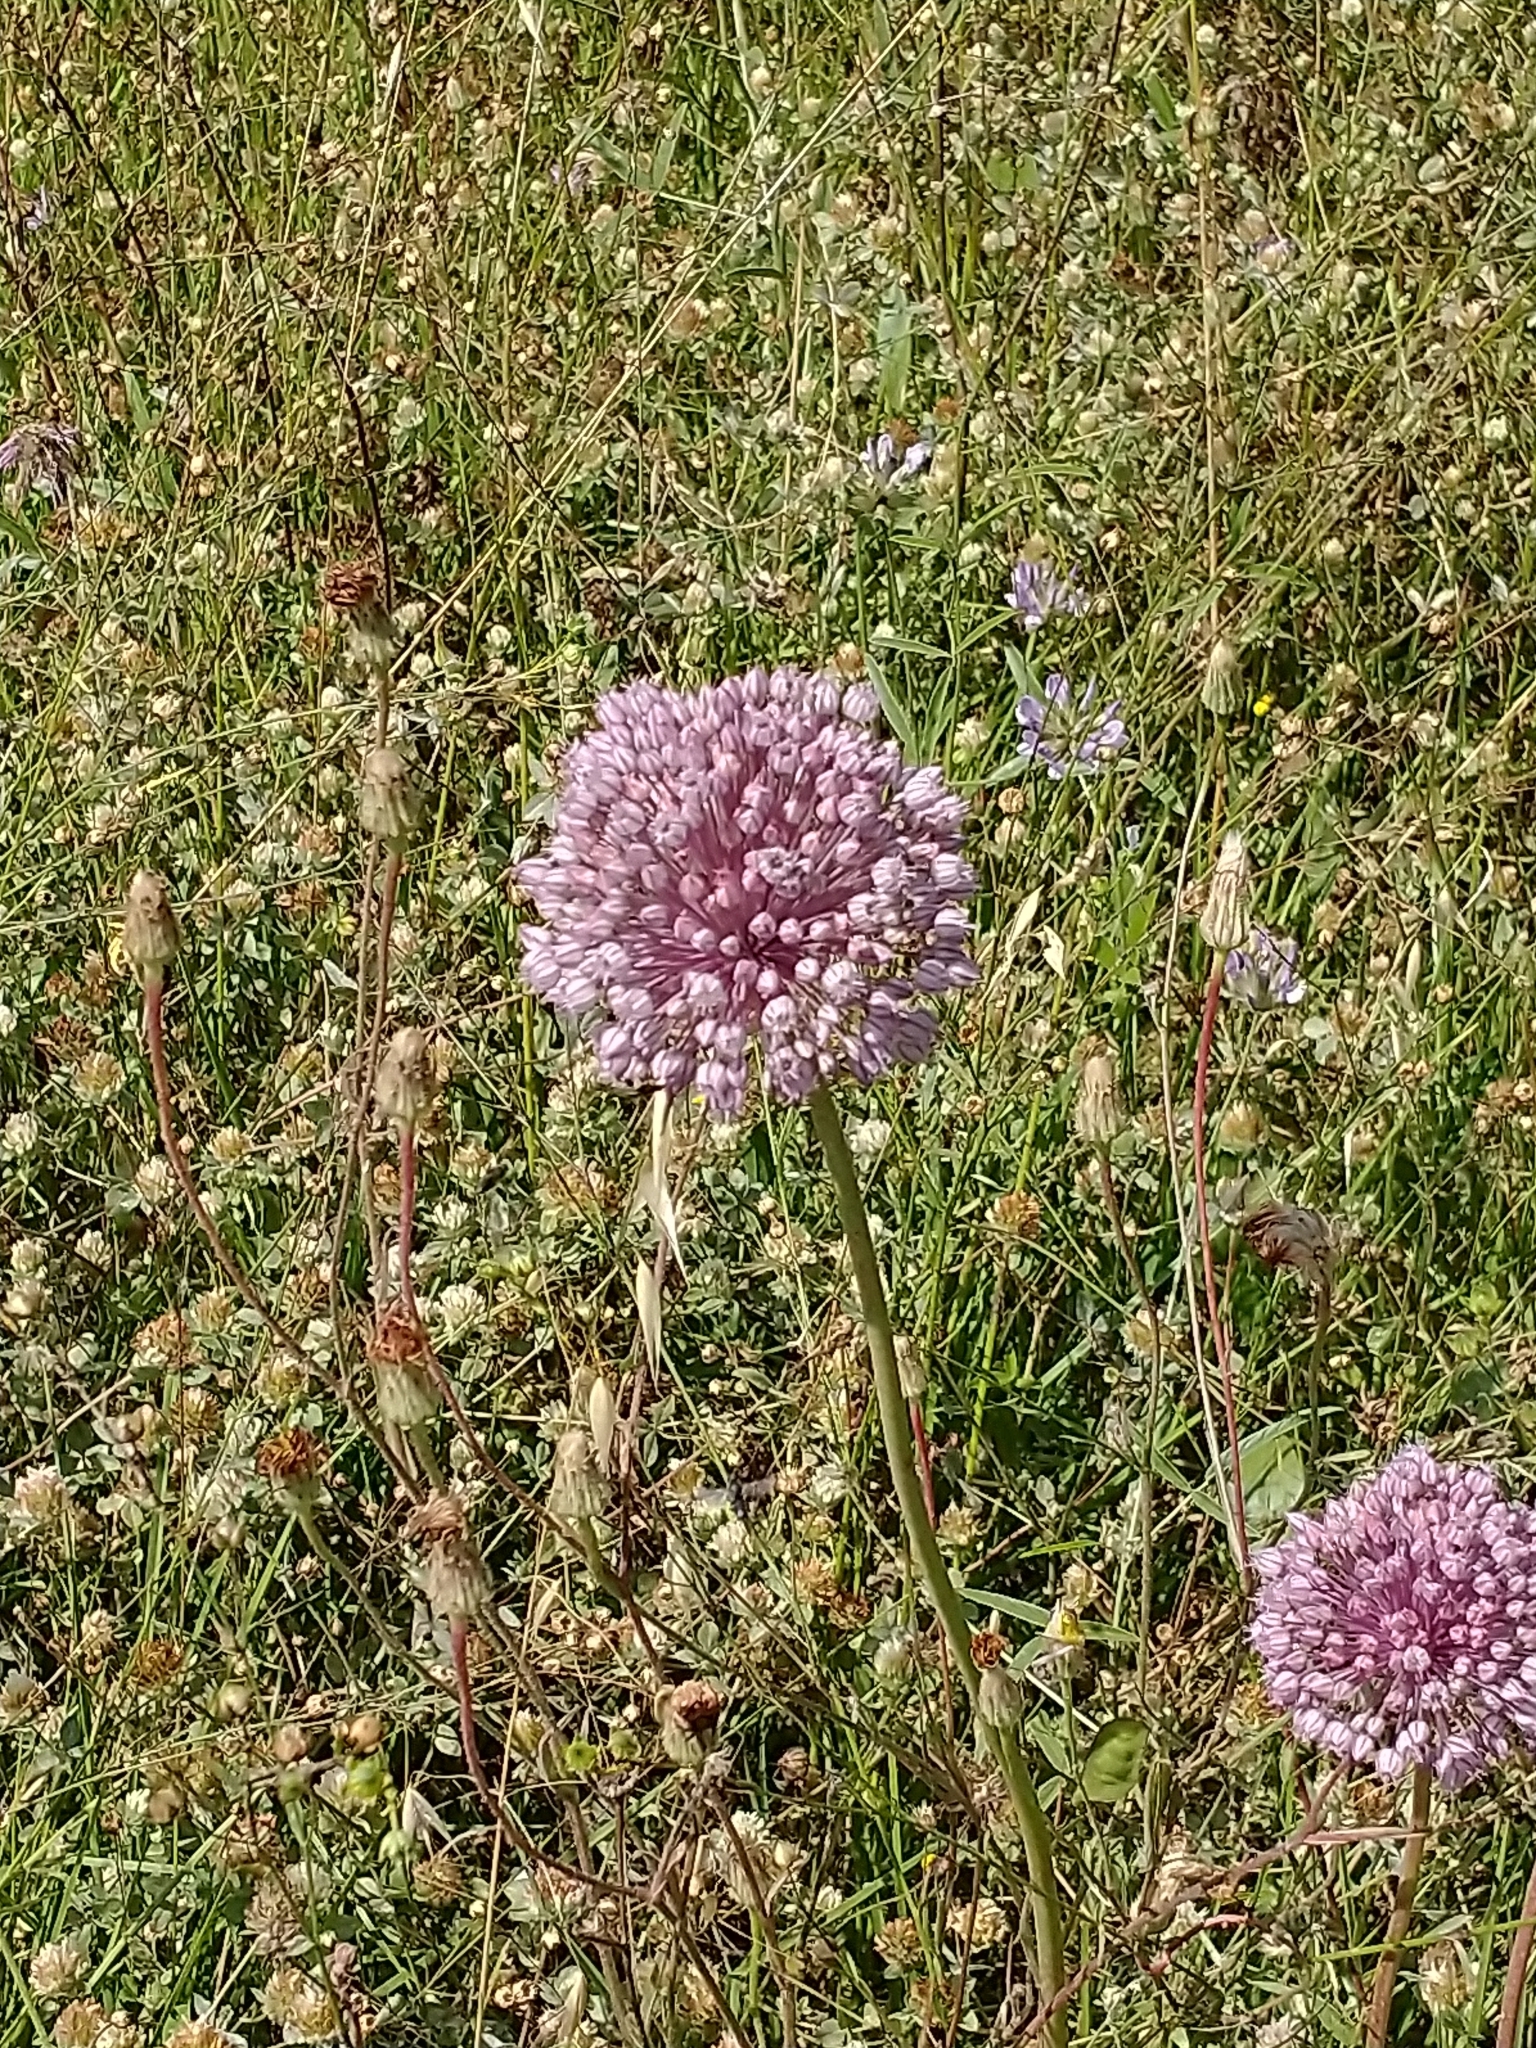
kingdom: Plantae
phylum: Tracheophyta
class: Liliopsida
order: Asparagales
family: Amaryllidaceae
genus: Allium
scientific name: Allium ampeloprasum
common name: Wild leek
